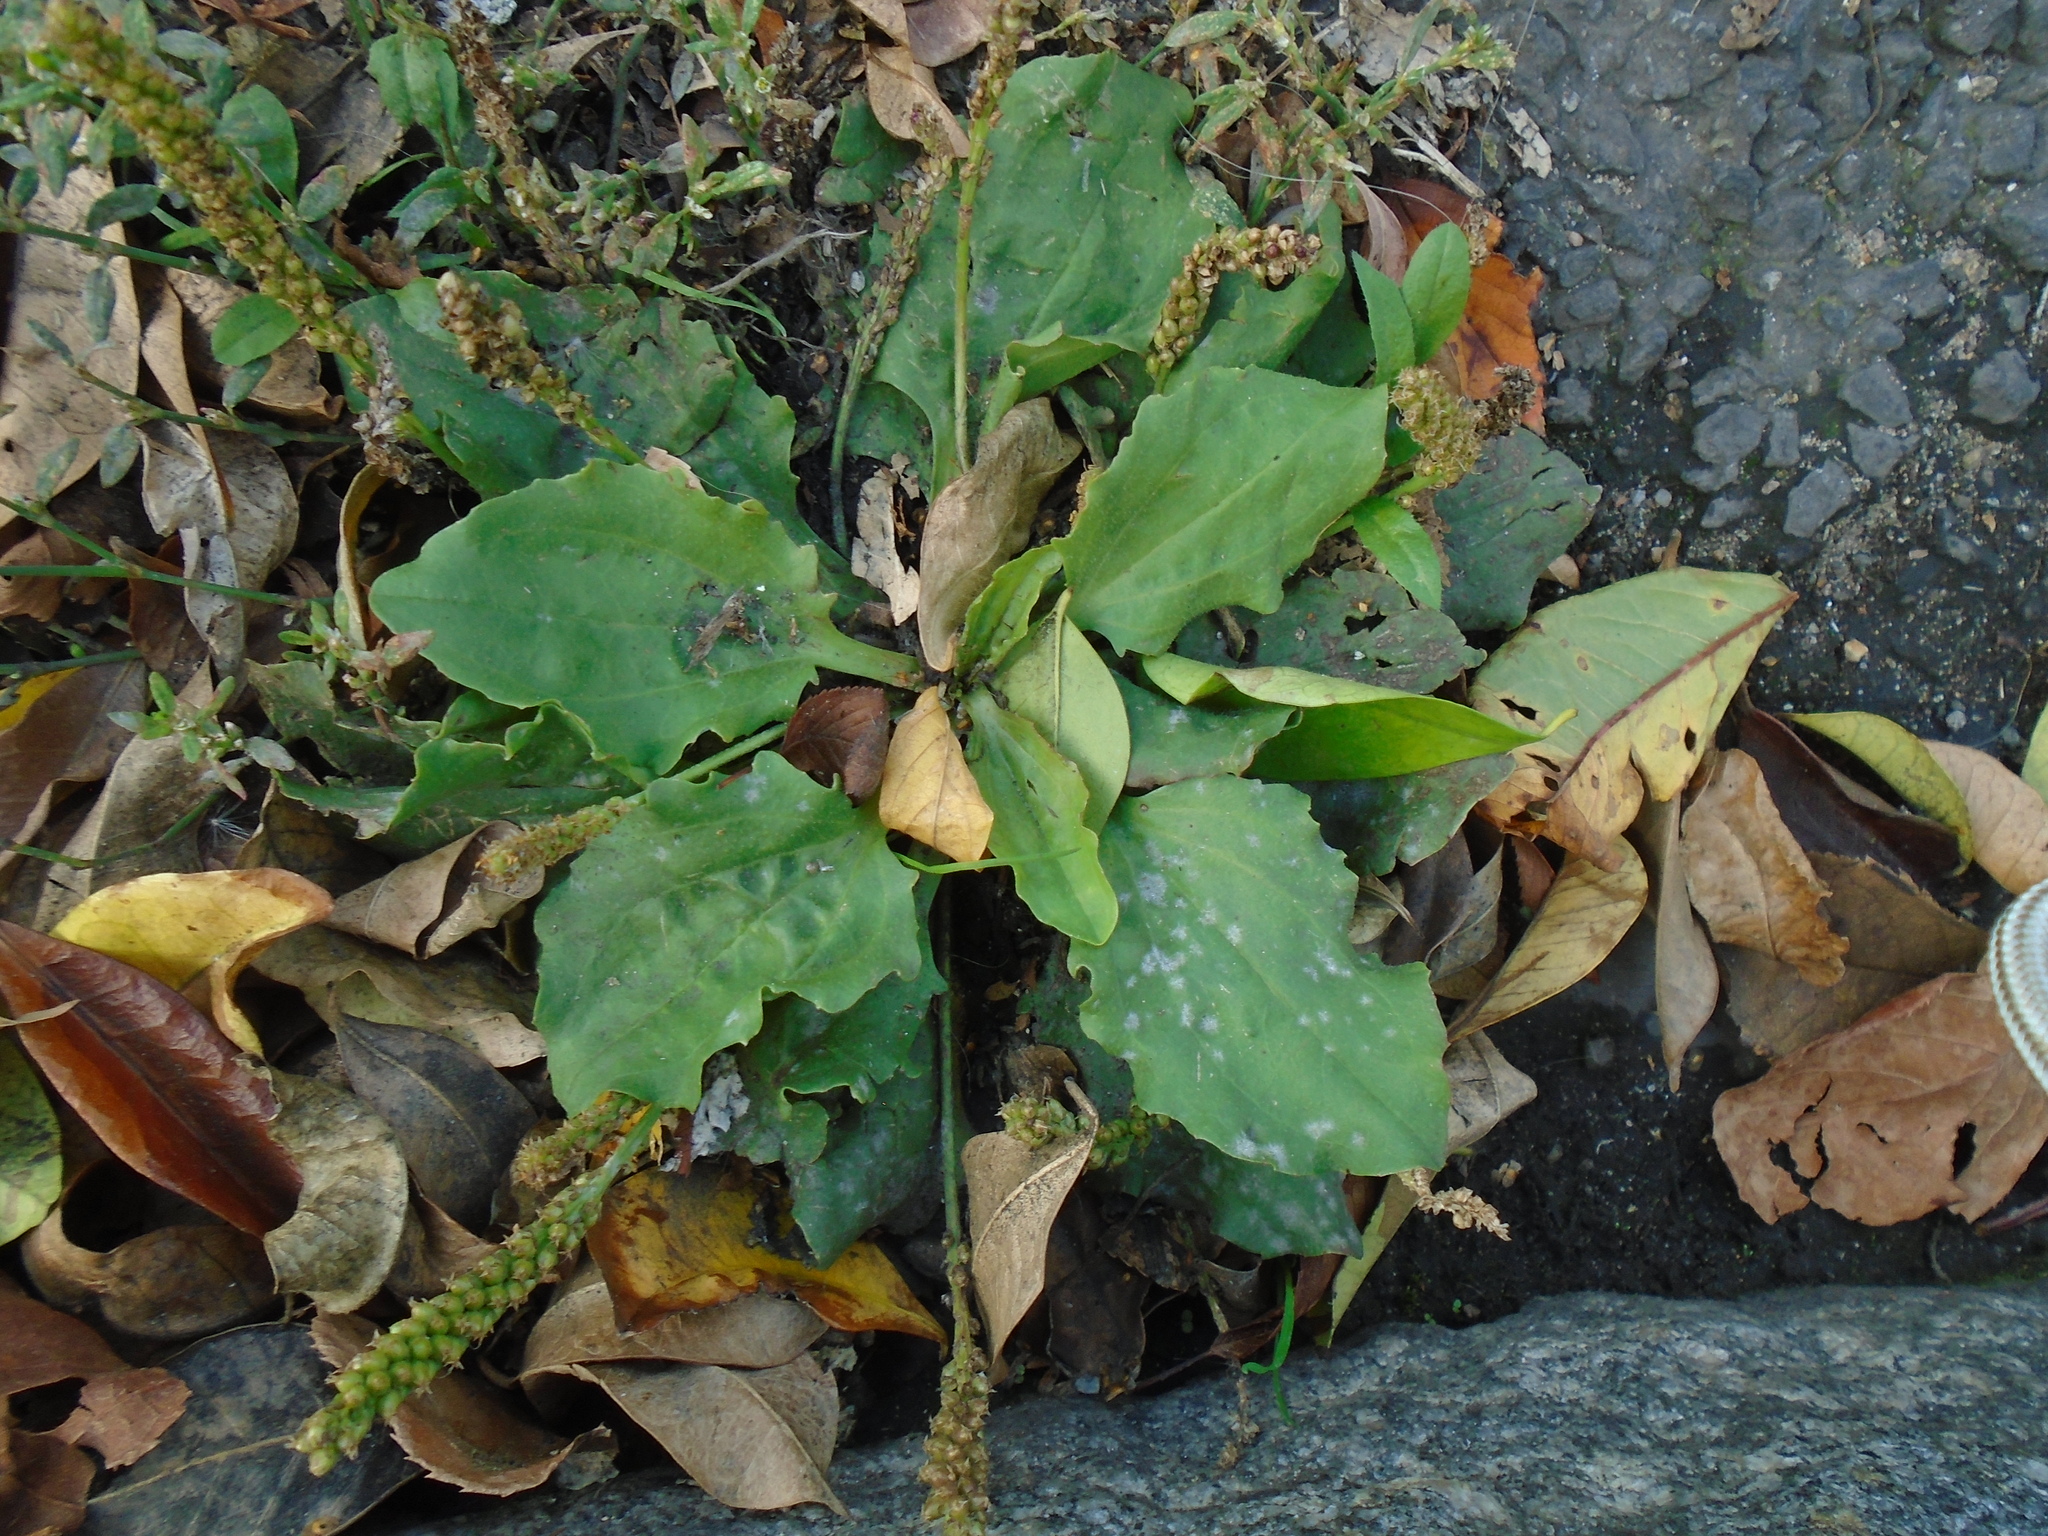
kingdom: Plantae
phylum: Tracheophyta
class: Magnoliopsida
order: Lamiales
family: Plantaginaceae
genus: Plantago
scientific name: Plantago major
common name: Common plantain
